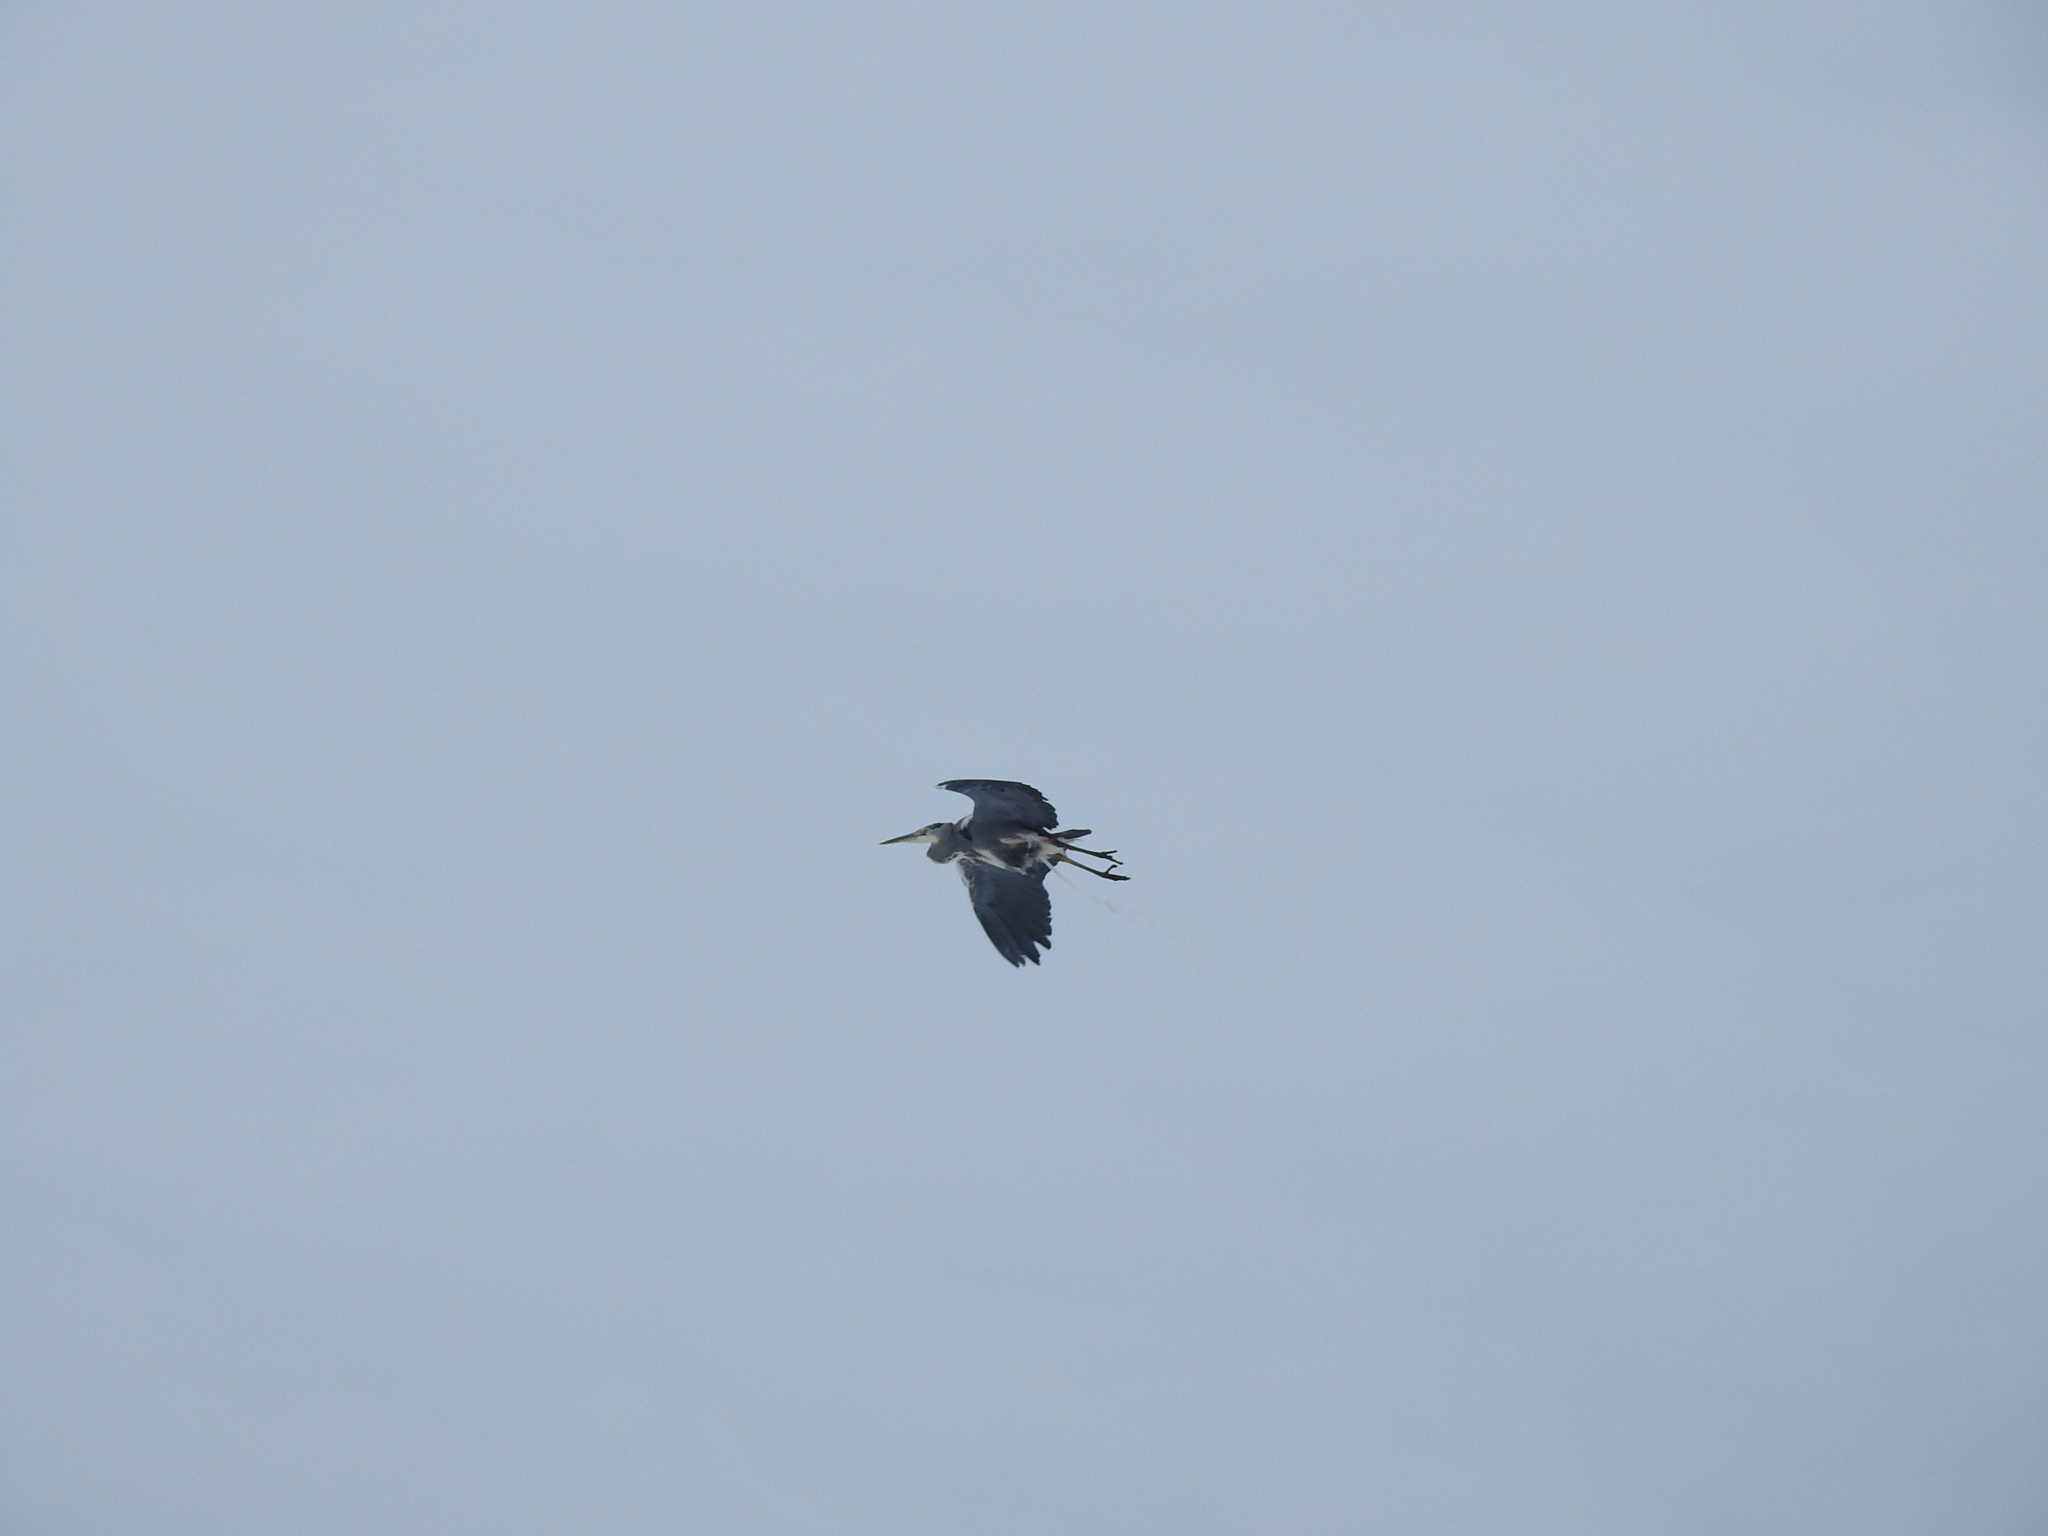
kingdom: Animalia
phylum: Chordata
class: Aves
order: Pelecaniformes
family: Ardeidae
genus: Ardea
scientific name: Ardea cinerea
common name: Grey heron
